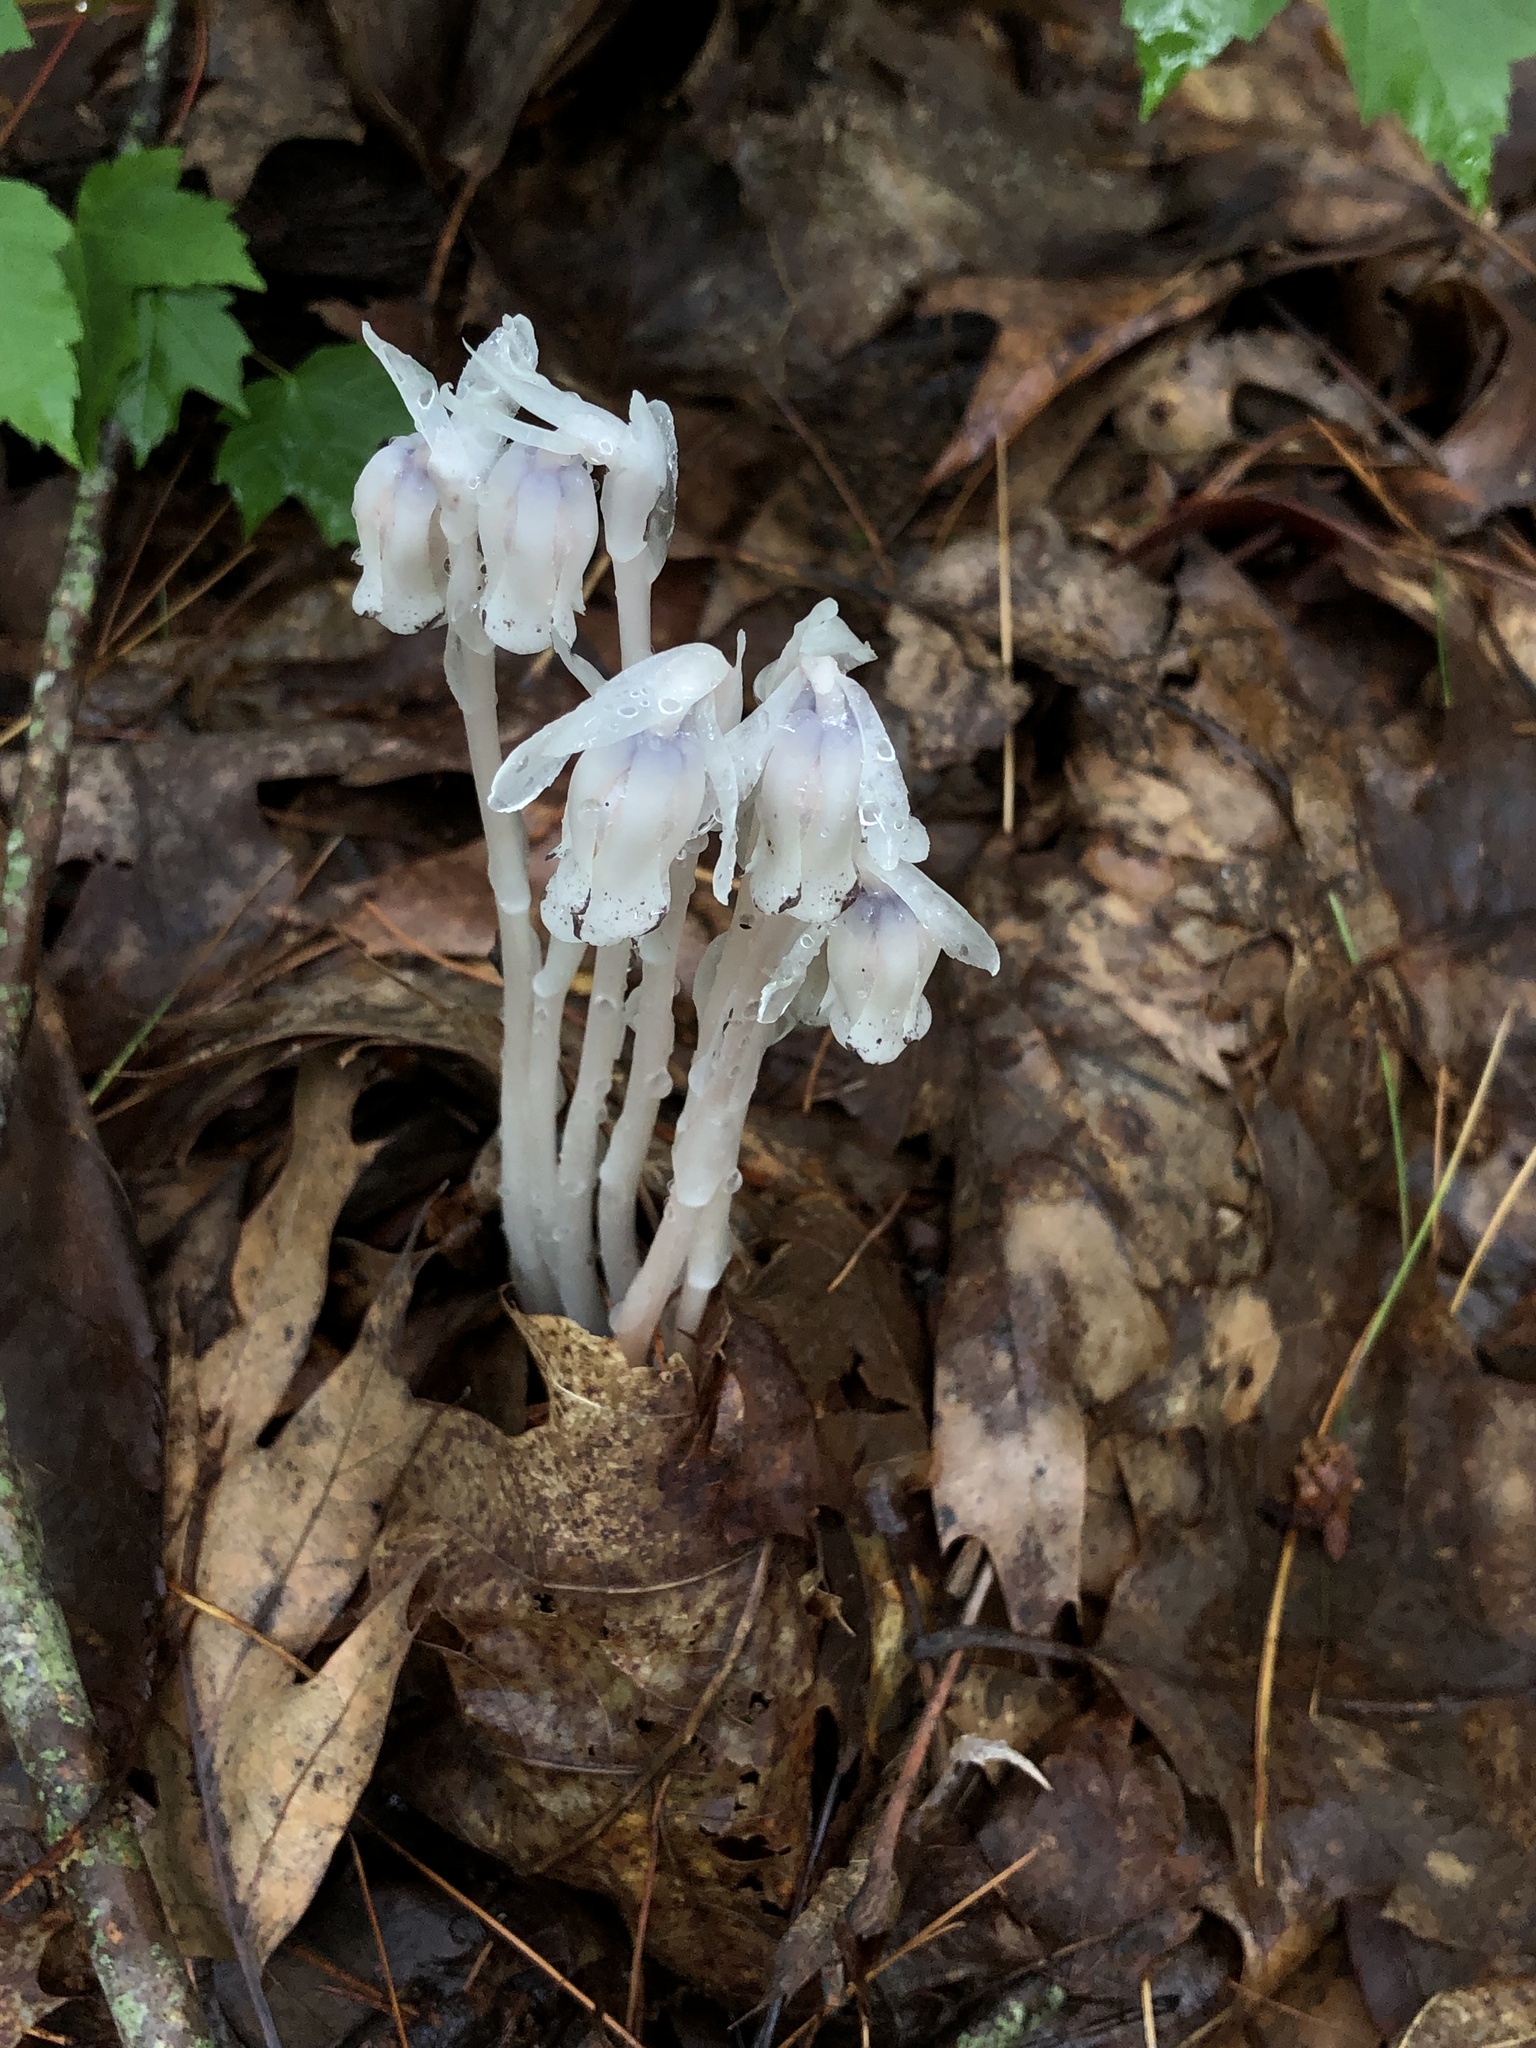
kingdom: Plantae
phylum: Tracheophyta
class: Magnoliopsida
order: Ericales
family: Ericaceae
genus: Monotropa
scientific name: Monotropa uniflora
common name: Convulsion root
